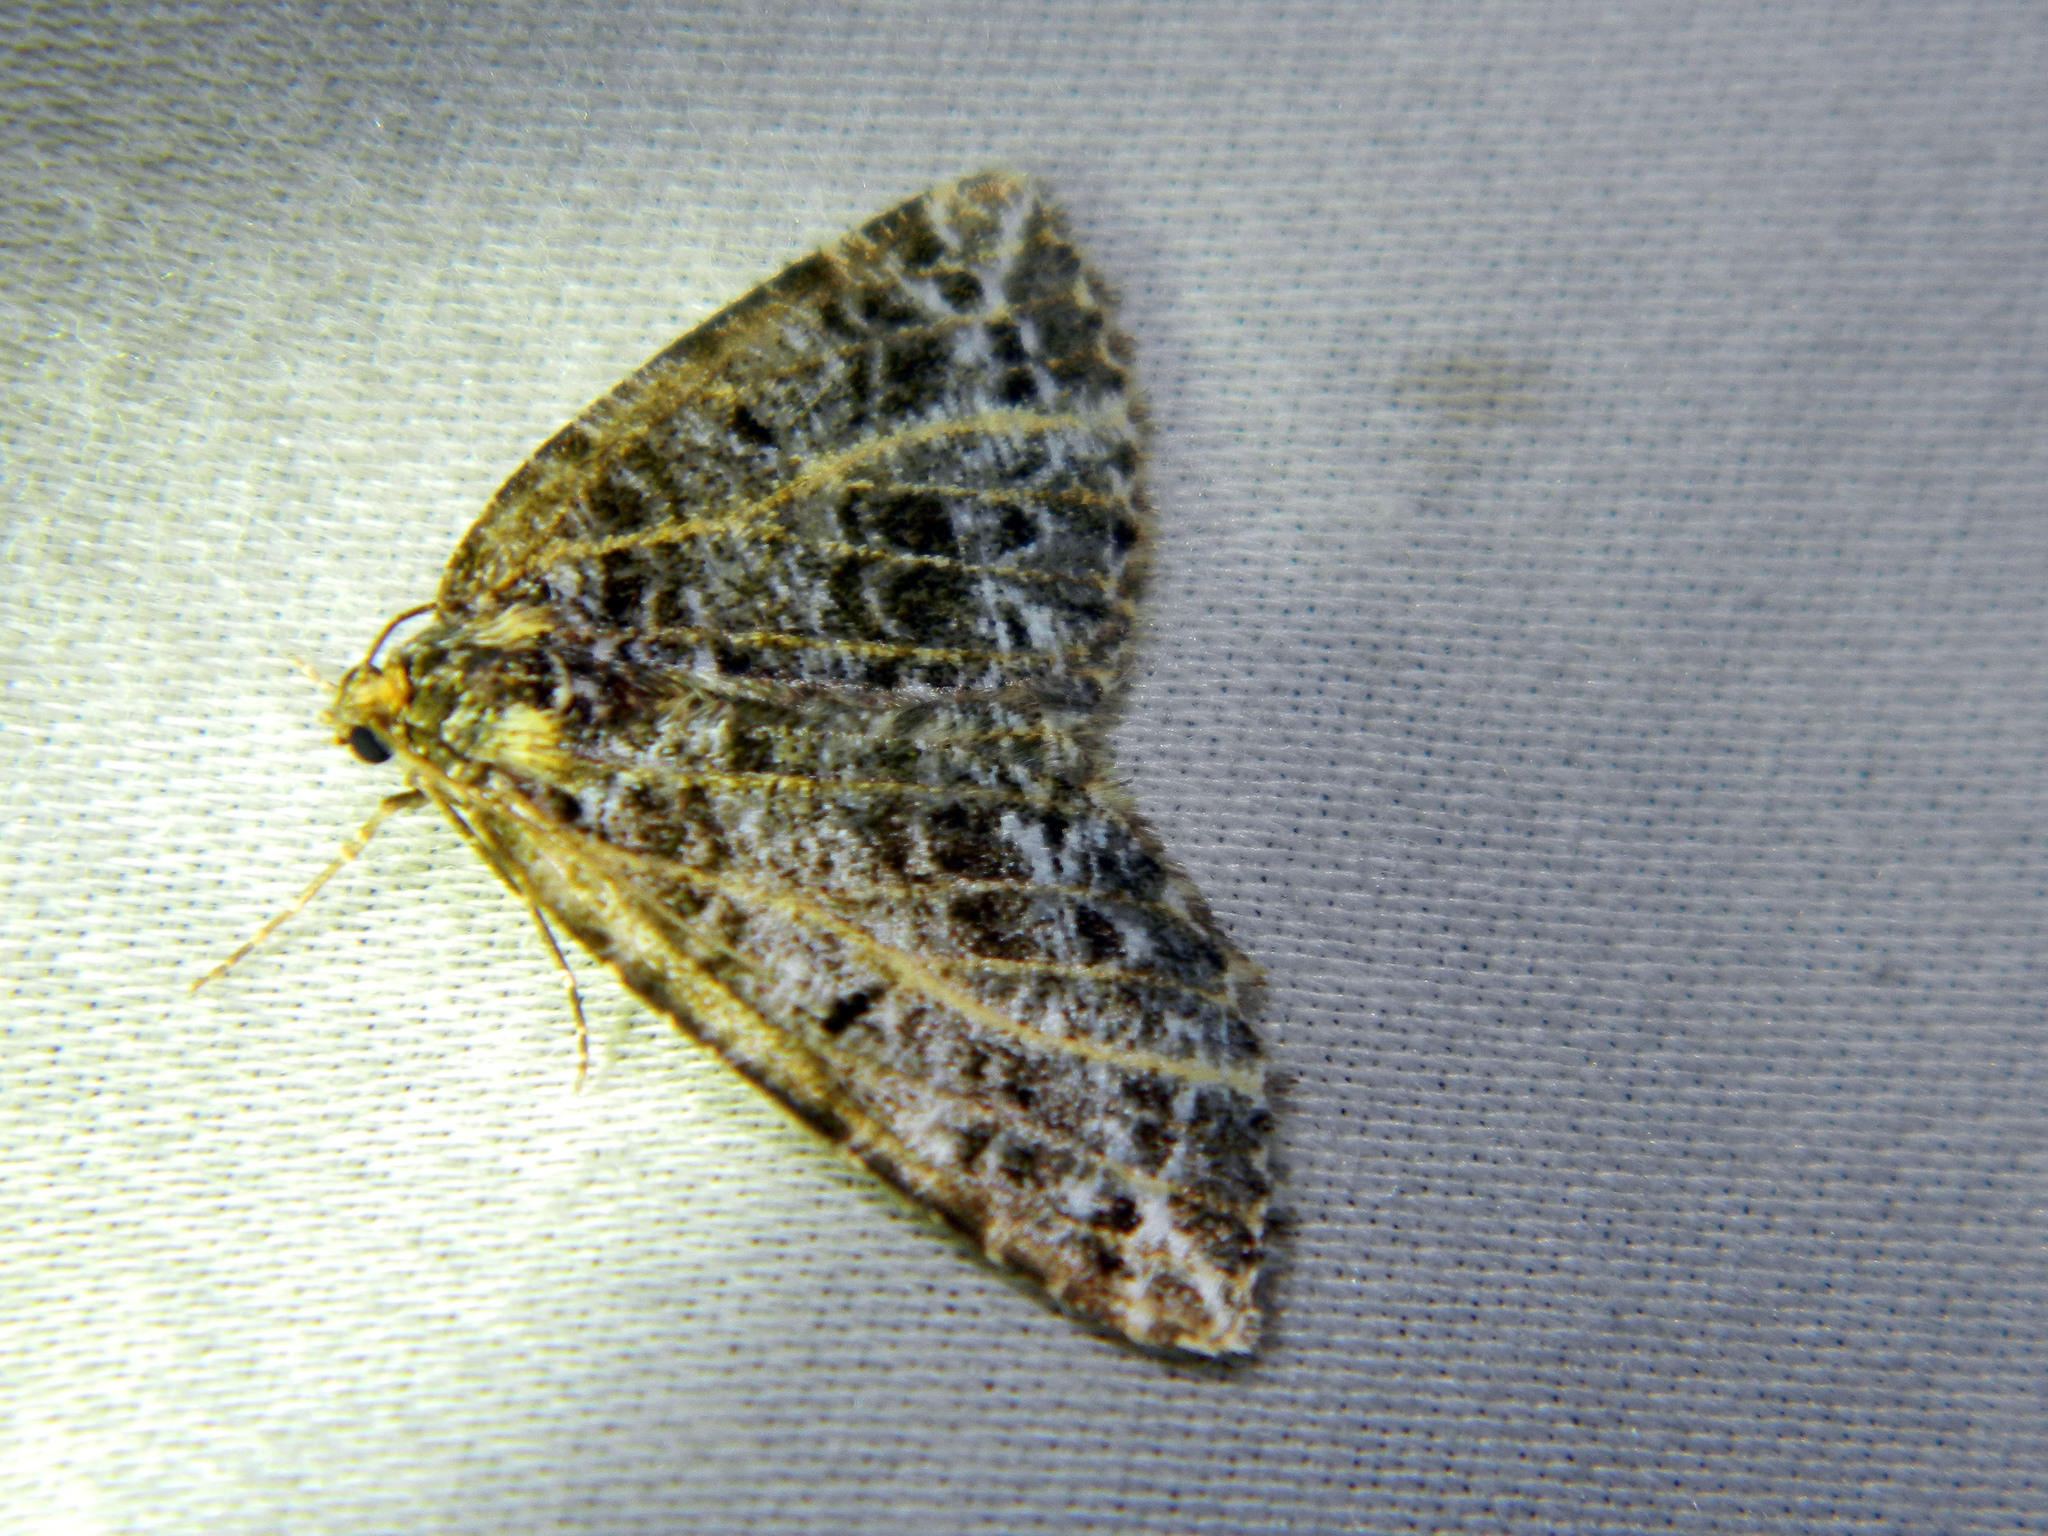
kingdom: Animalia
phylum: Arthropoda
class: Insecta
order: Lepidoptera
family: Geometridae
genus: Orthofidonia
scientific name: Orthofidonia flavivenata
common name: Yellow-veined geometer moth
